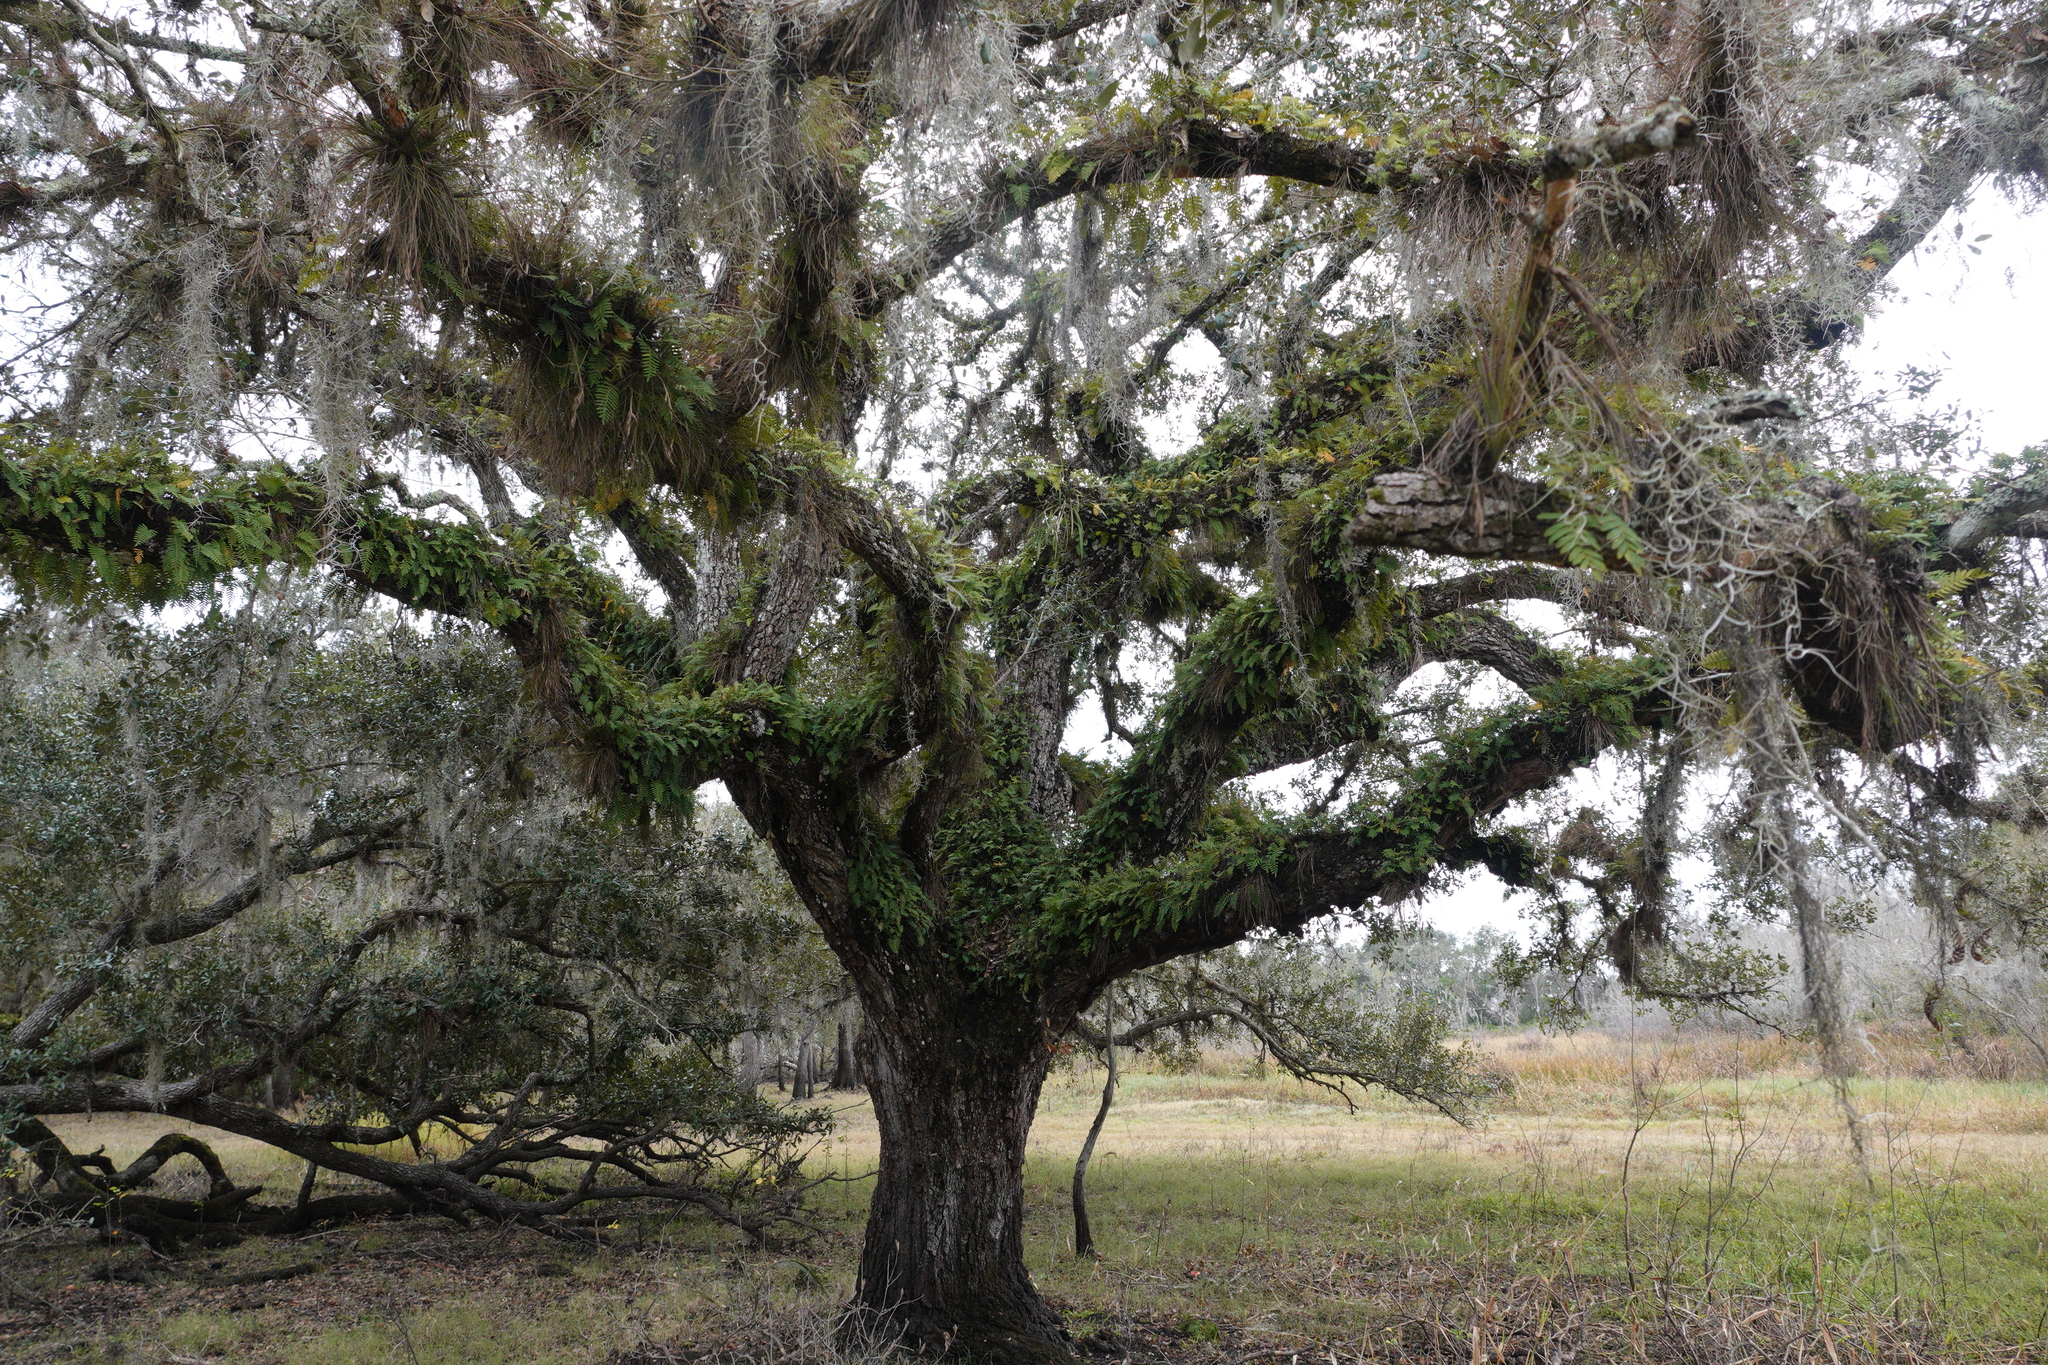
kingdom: Plantae
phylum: Tracheophyta
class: Polypodiopsida
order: Polypodiales
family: Polypodiaceae
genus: Pleopeltis
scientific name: Pleopeltis michauxiana
